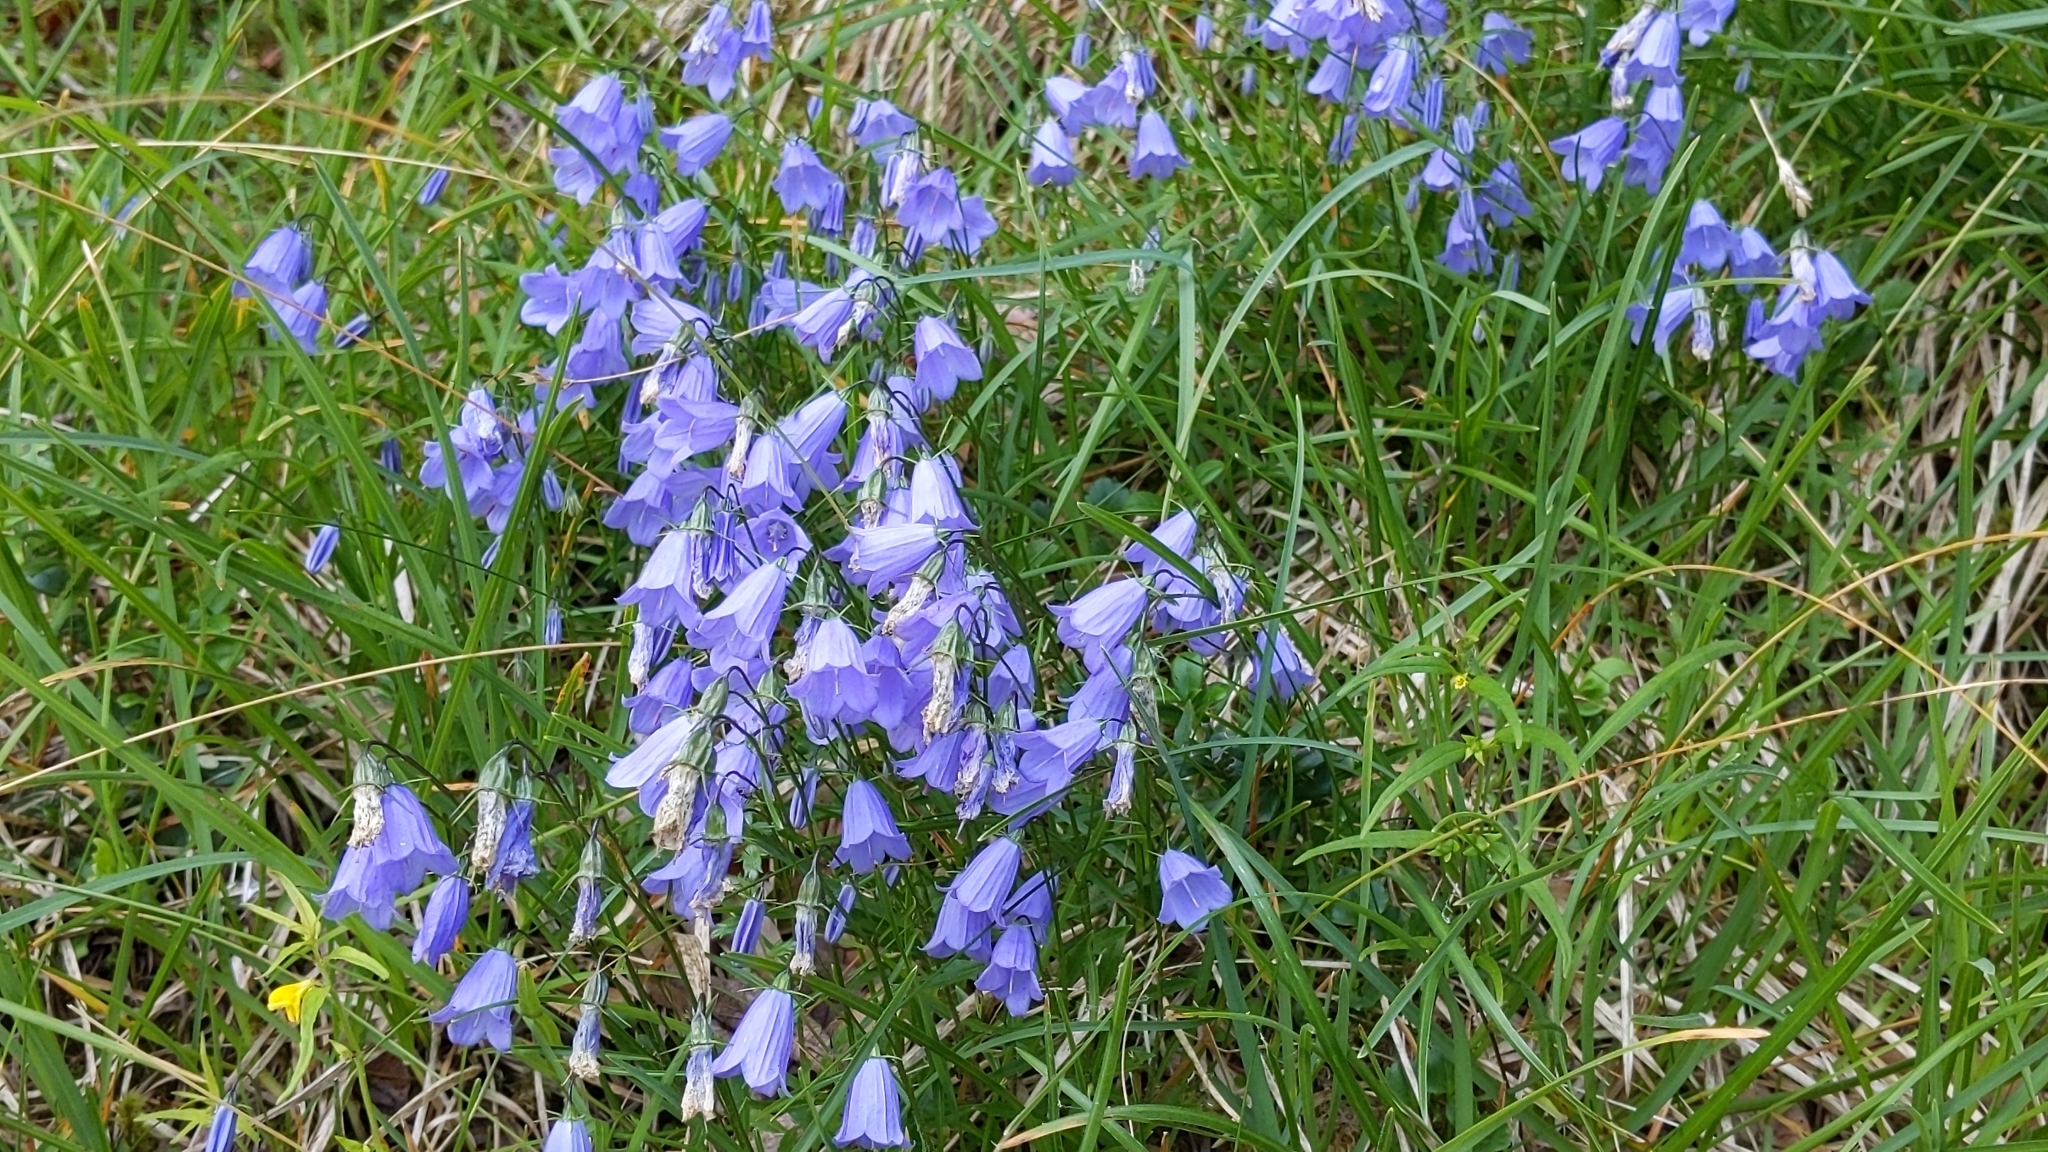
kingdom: Plantae
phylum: Tracheophyta
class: Magnoliopsida
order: Asterales
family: Campanulaceae
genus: Campanula
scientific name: Campanula cochleariifolia
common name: Fairies'-thimbles
